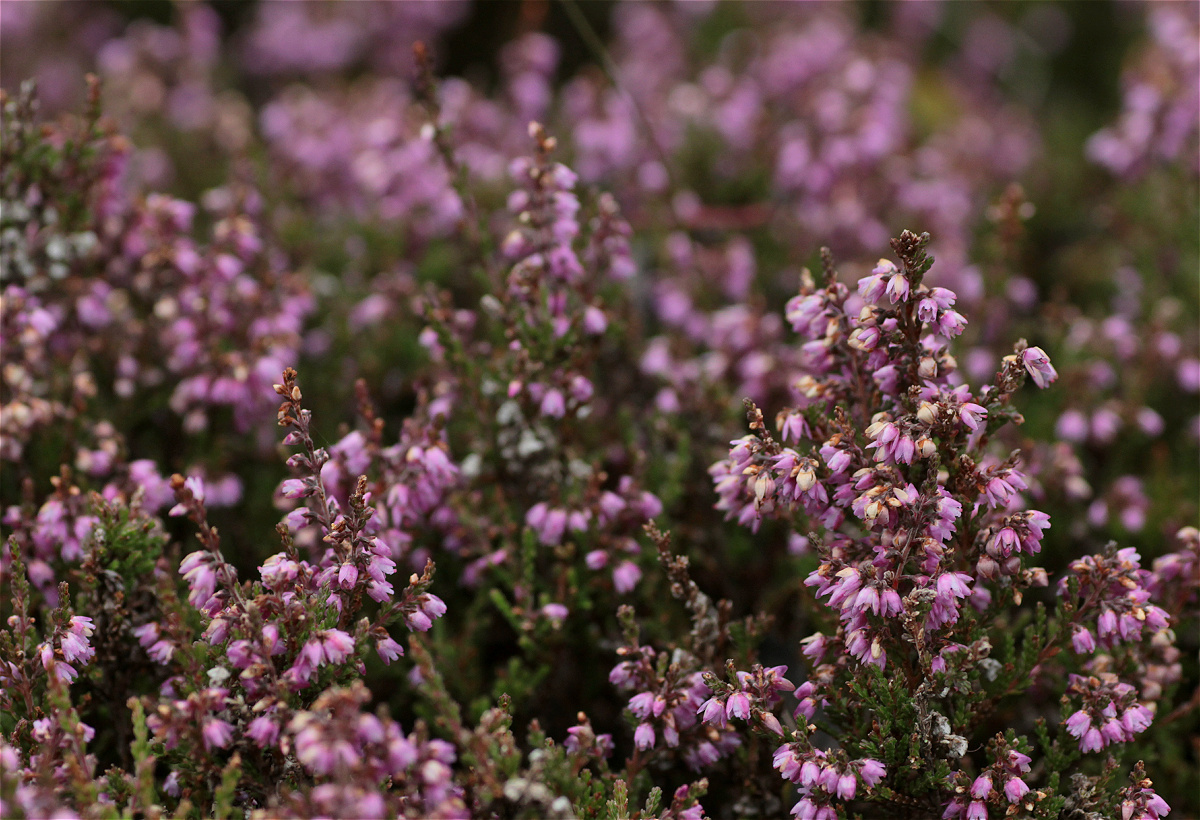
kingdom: Plantae
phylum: Tracheophyta
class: Magnoliopsida
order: Ericales
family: Ericaceae
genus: Calluna
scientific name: Calluna vulgaris
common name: Heather
